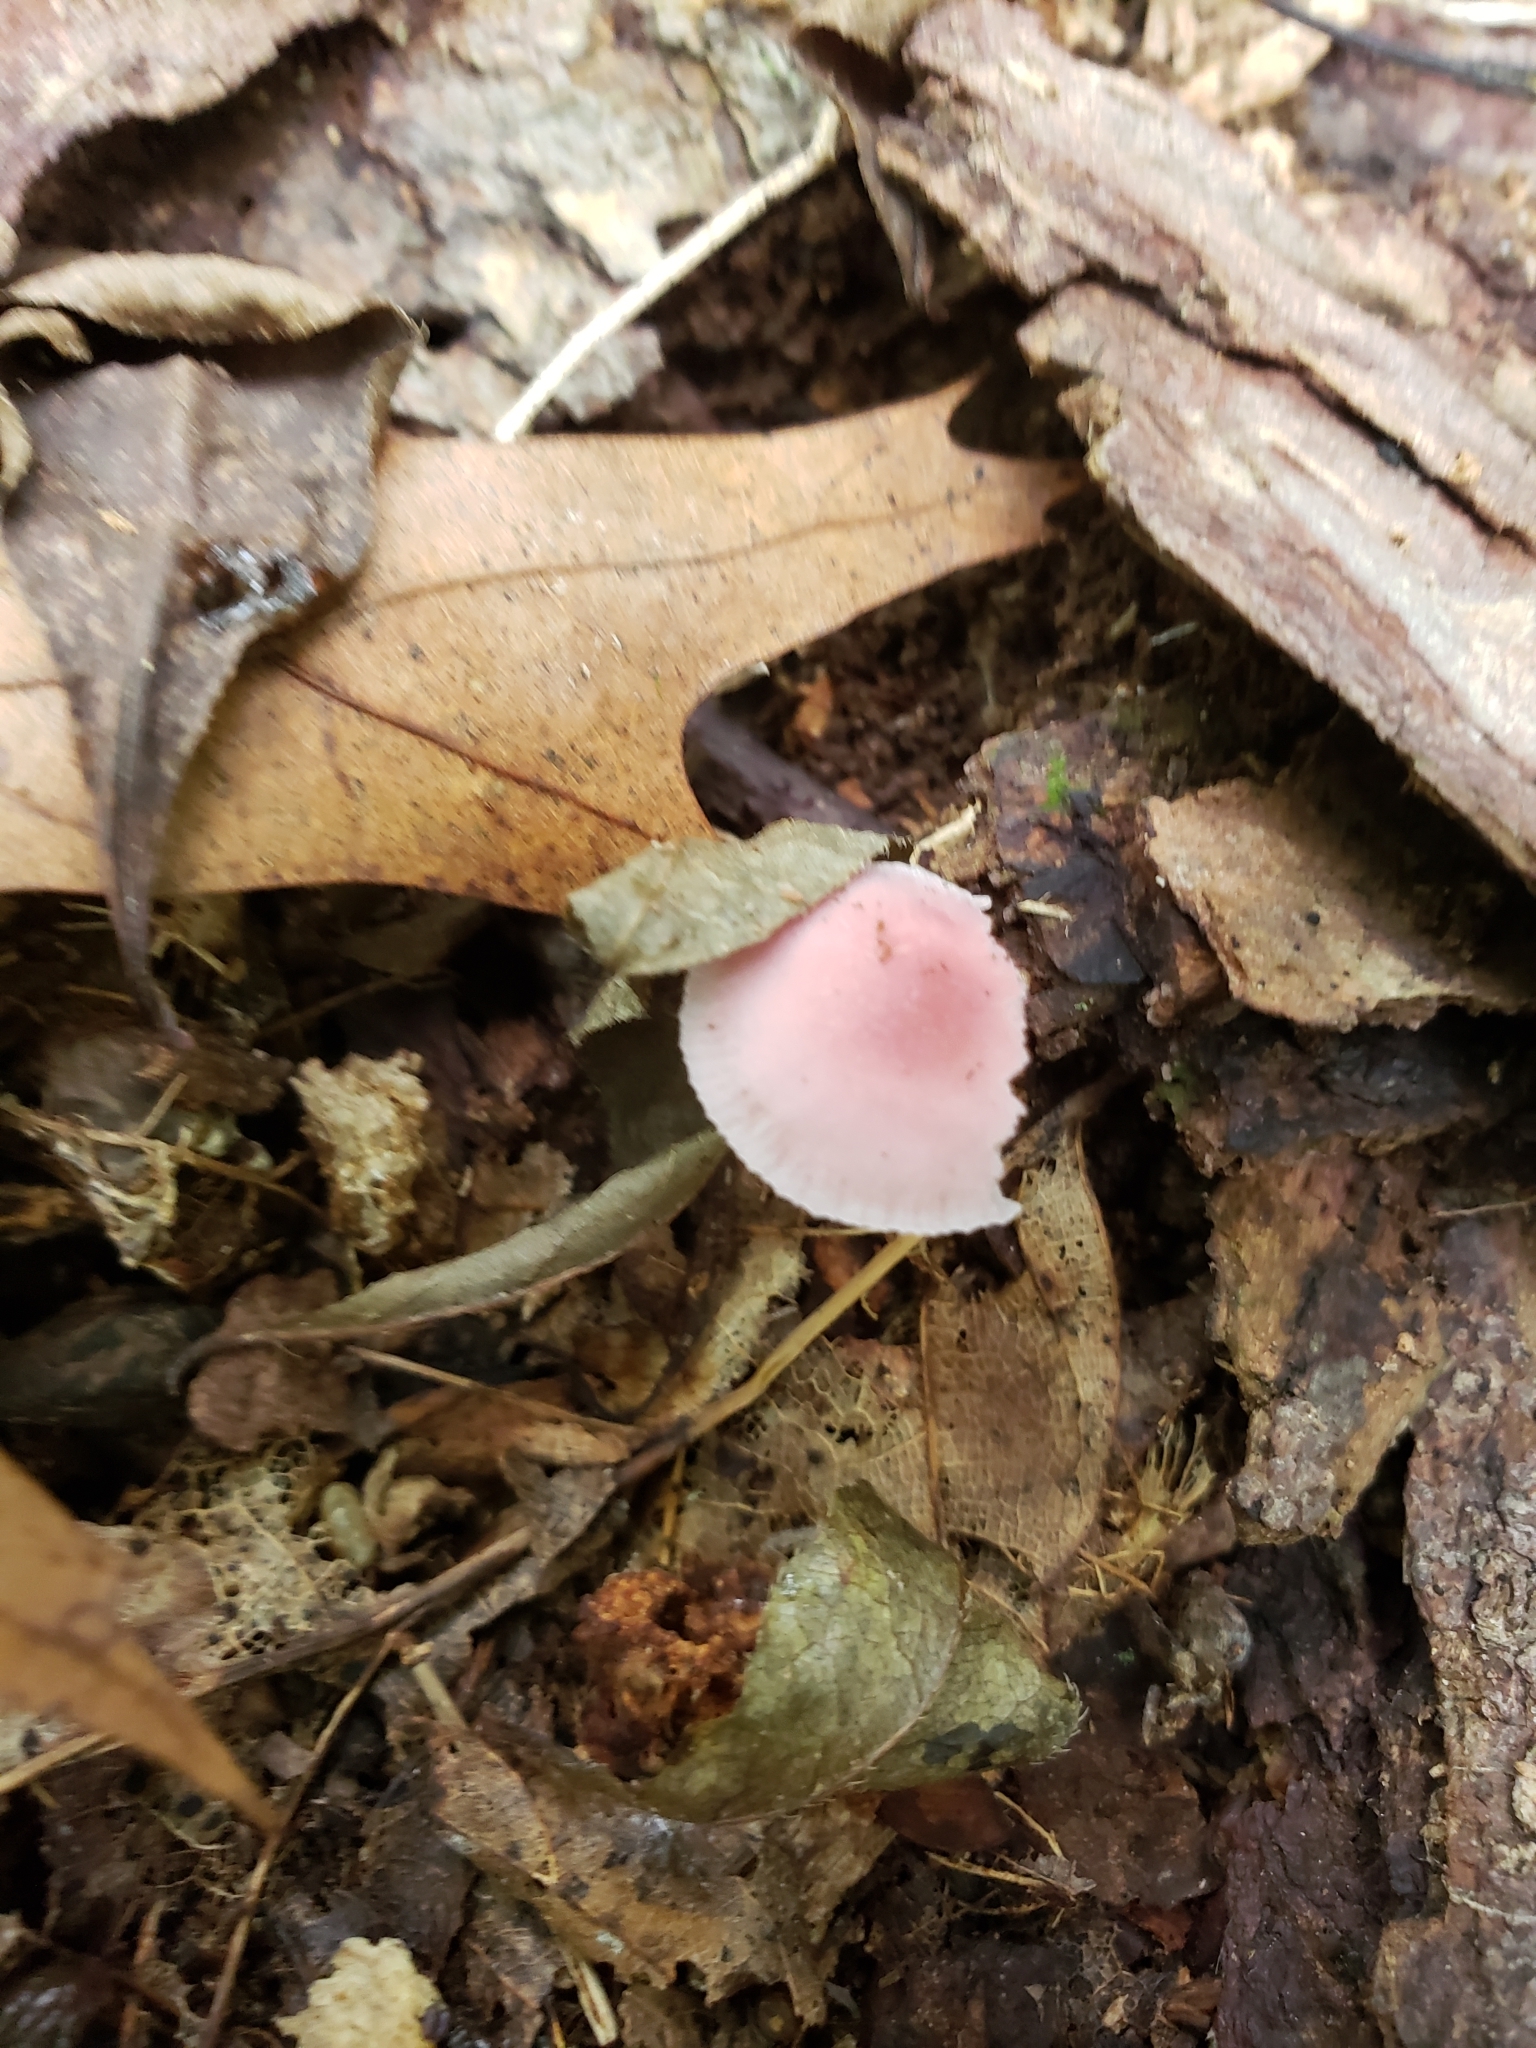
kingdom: Fungi
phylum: Basidiomycota
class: Agaricomycetes
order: Agaricales
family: Mycenaceae
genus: Mycena
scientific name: Mycena pura
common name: Lilac bonnet
